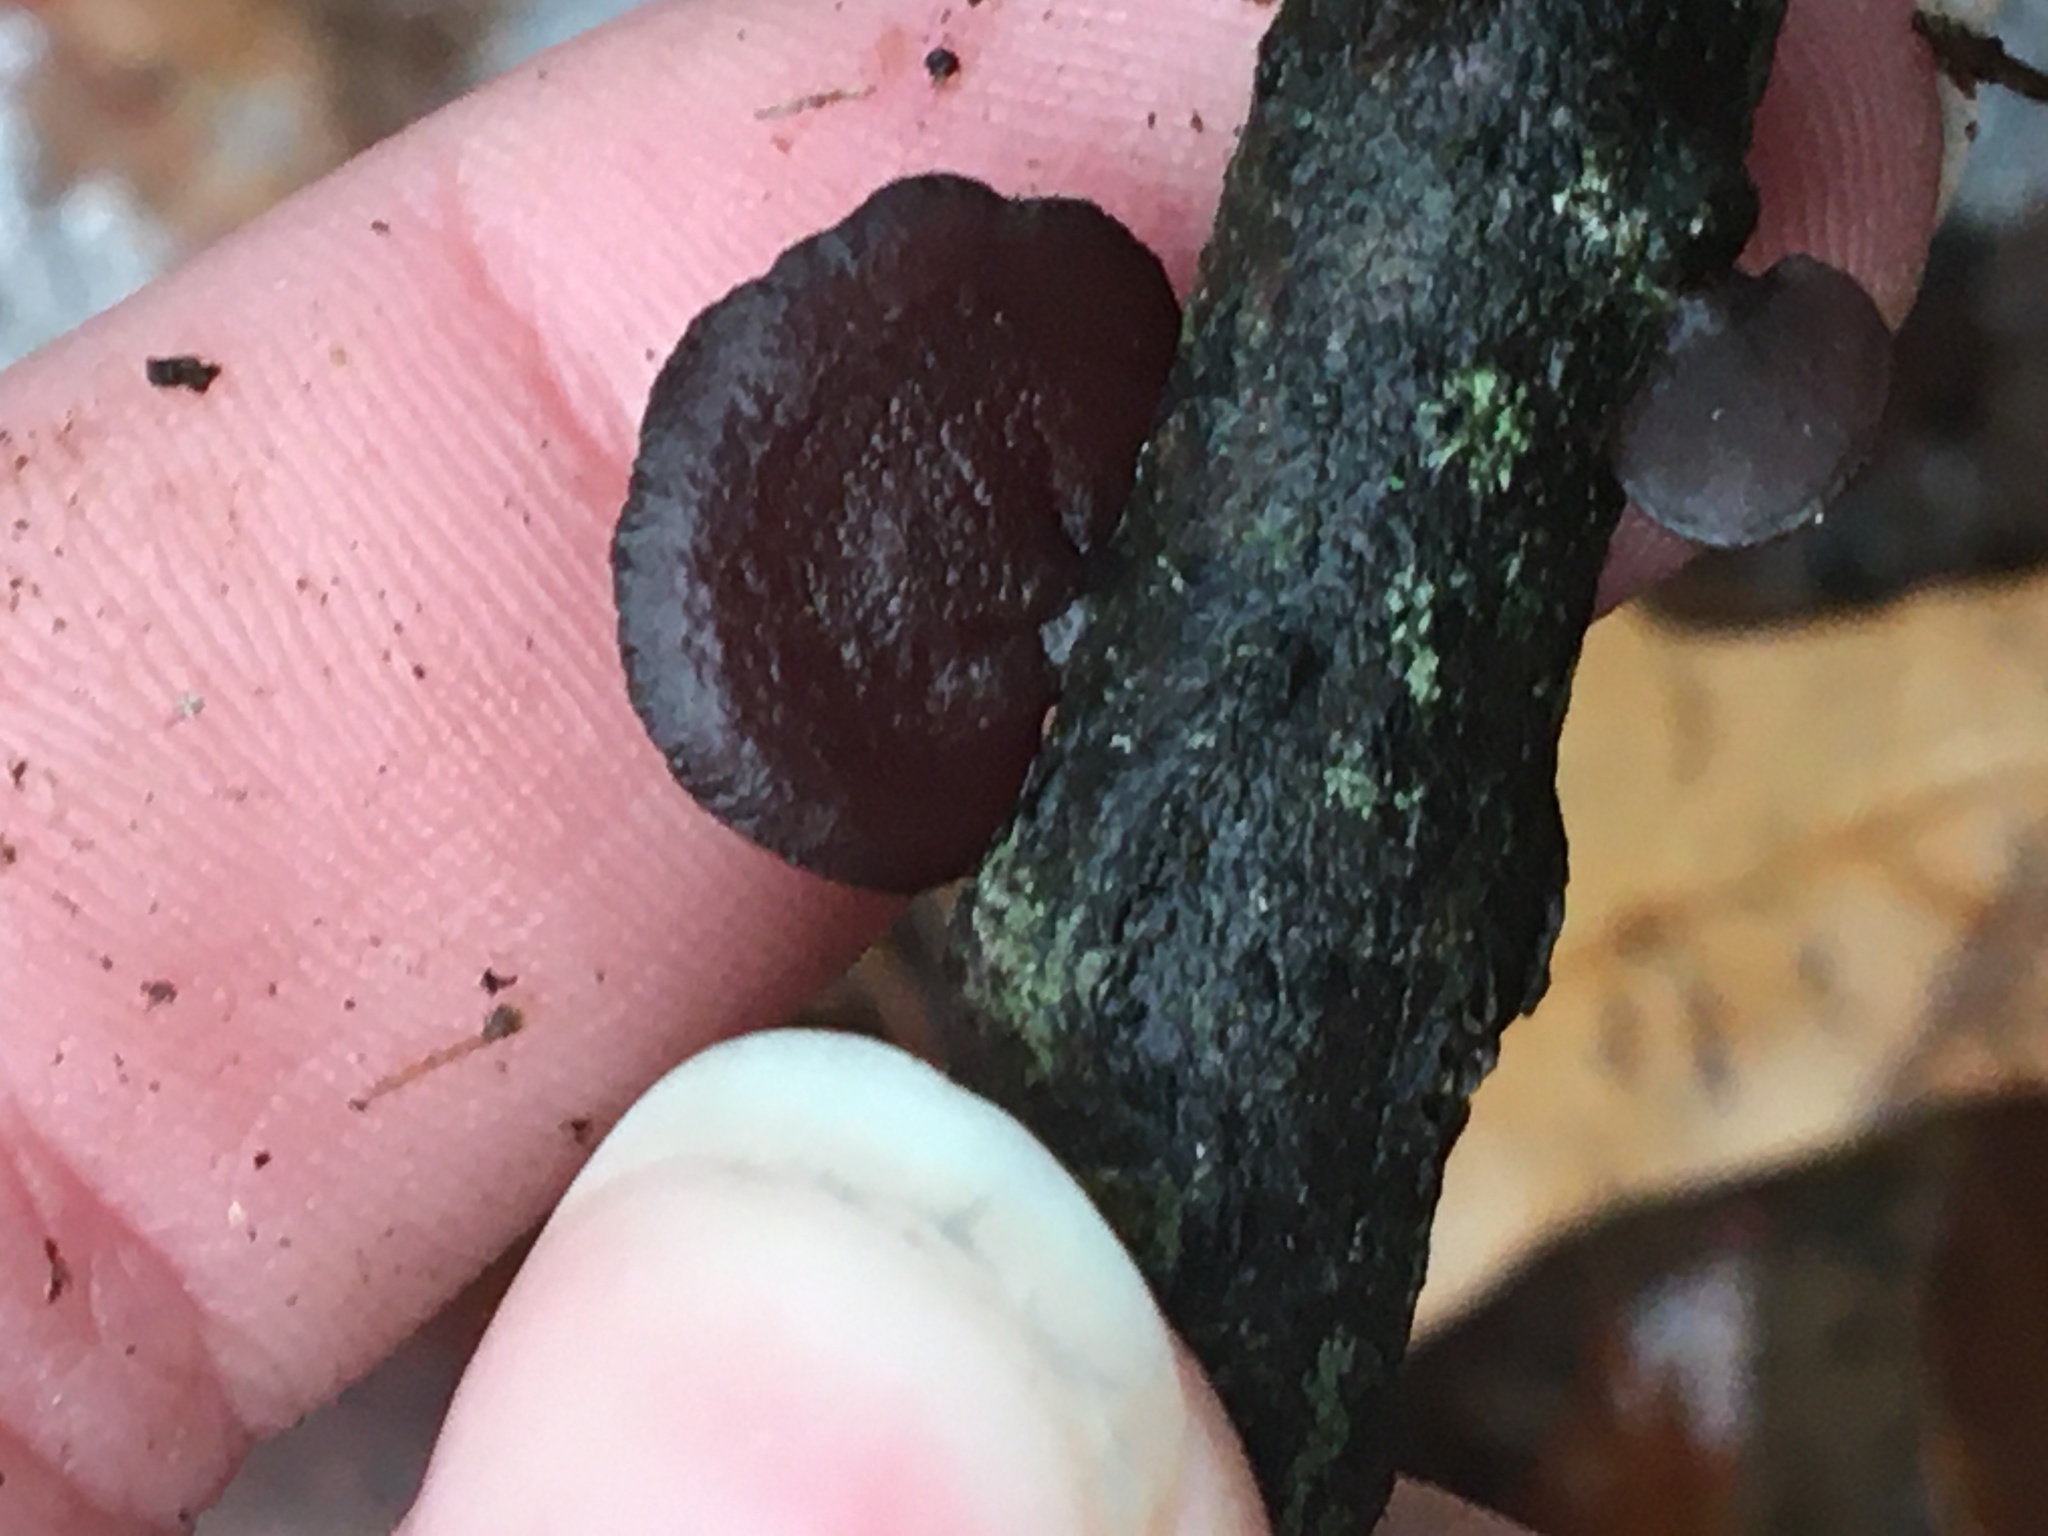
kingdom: Fungi
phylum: Basidiomycota
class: Agaricomycetes
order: Auriculariales
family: Auriculariaceae
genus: Exidia
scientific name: Exidia
